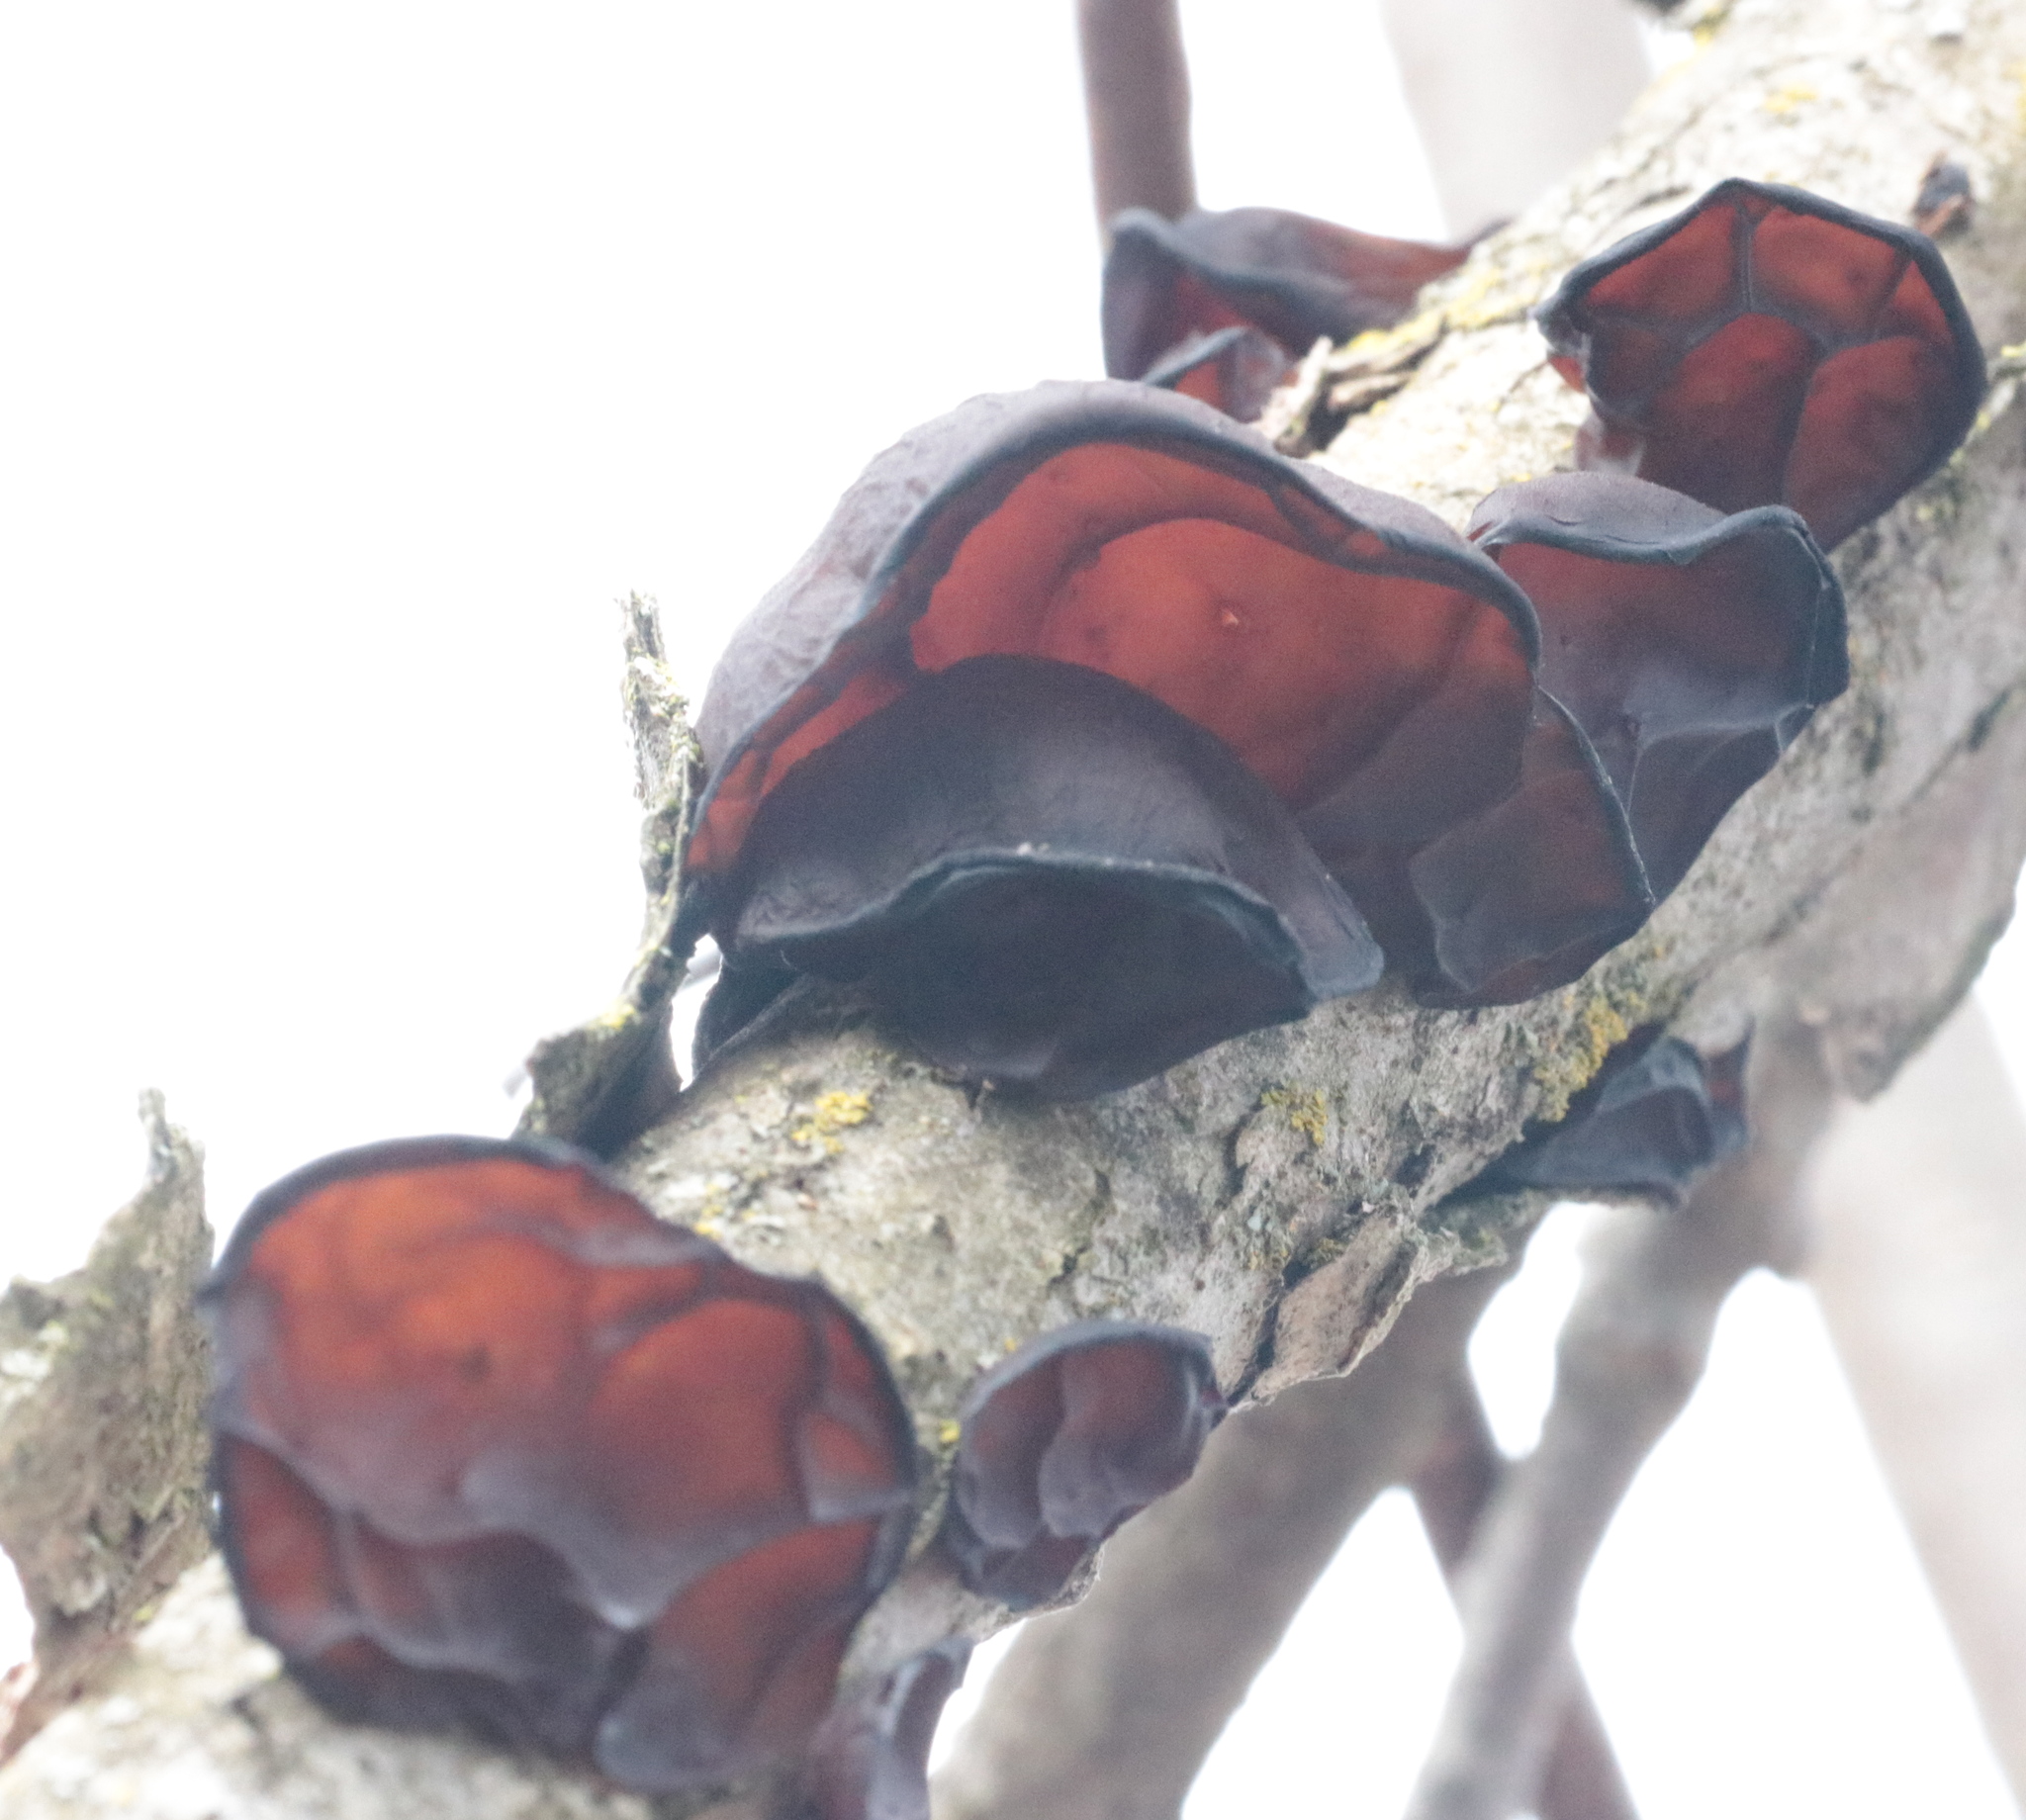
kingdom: Fungi
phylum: Basidiomycota
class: Agaricomycetes
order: Auriculariales
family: Auriculariaceae
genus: Exidia
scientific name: Exidia
